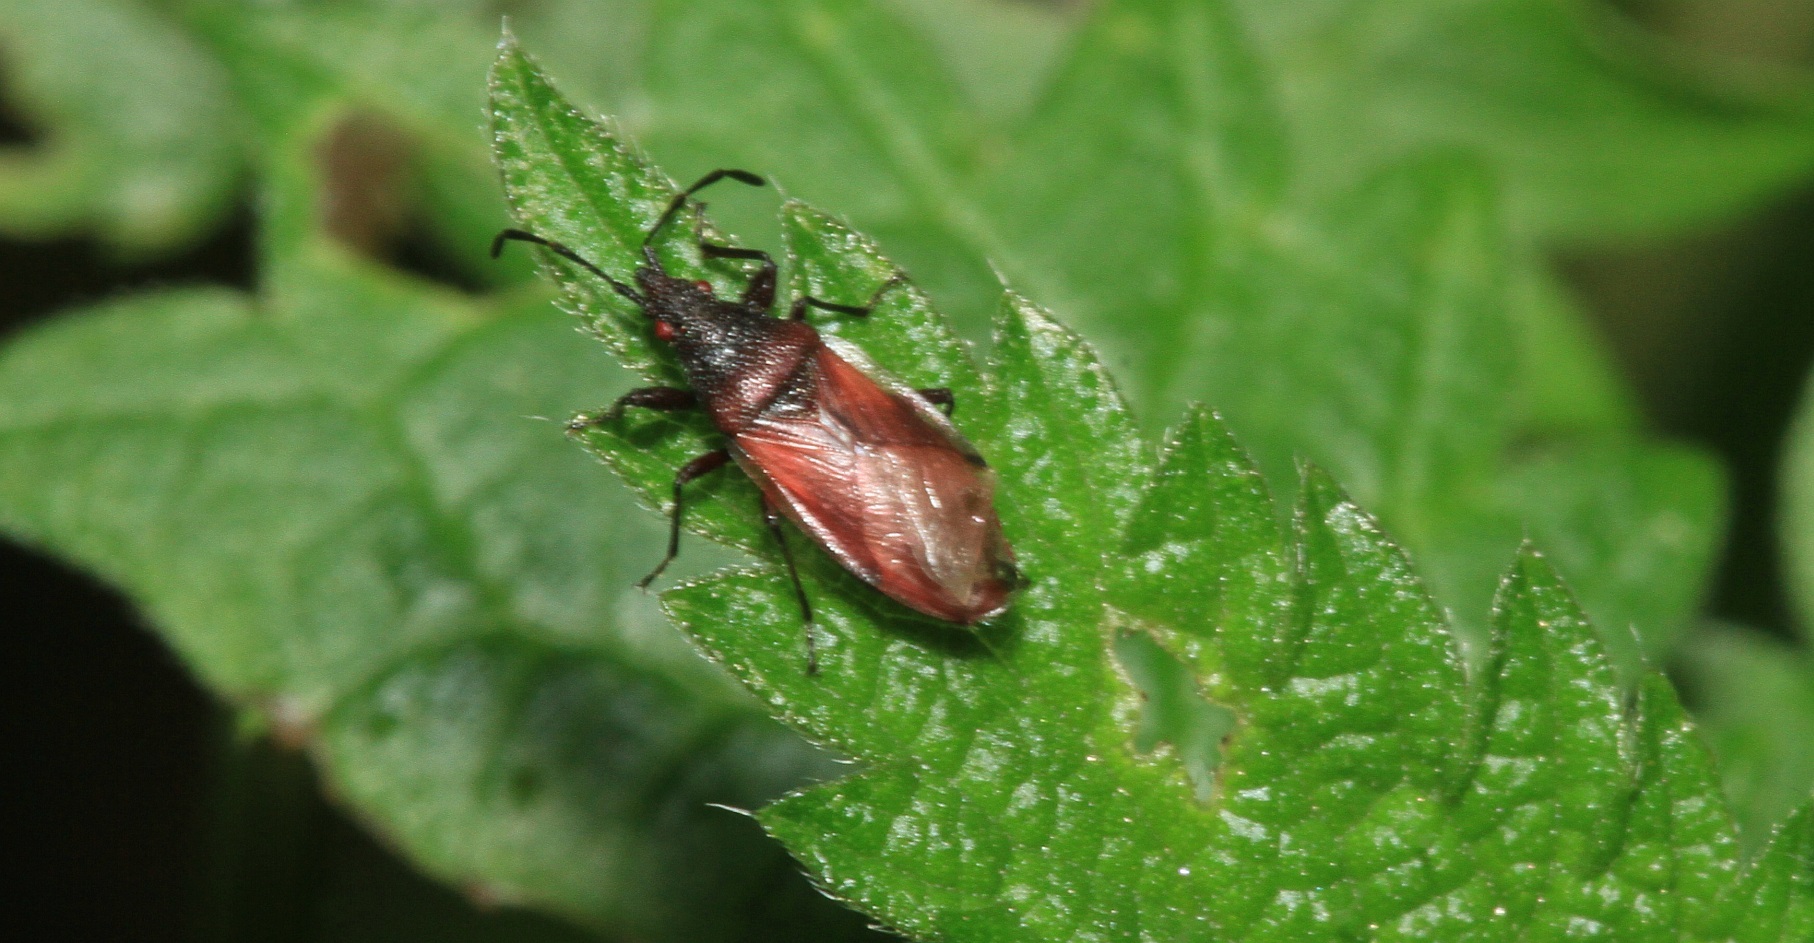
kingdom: Animalia
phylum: Arthropoda
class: Insecta
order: Hemiptera
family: Oxycarenidae
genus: Oxycarenus
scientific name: Oxycarenus lavaterae
